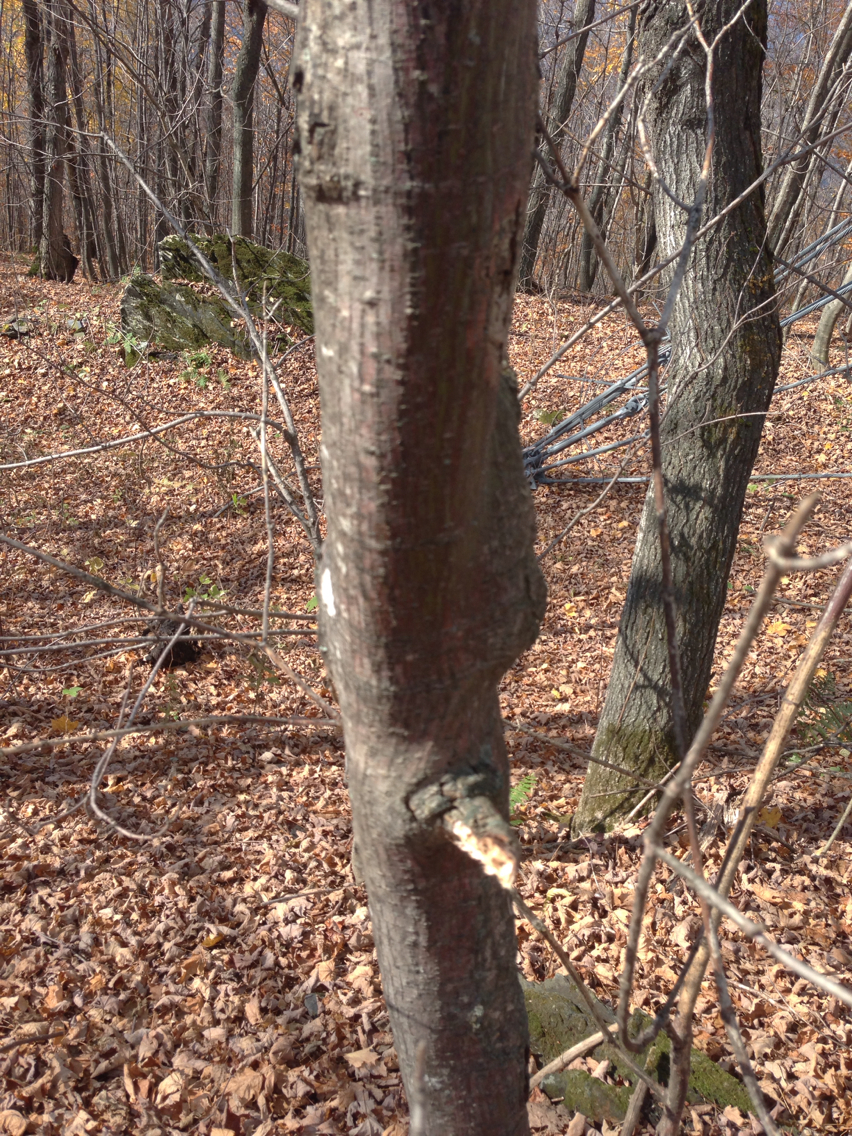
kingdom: Plantae
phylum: Tracheophyta
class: Magnoliopsida
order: Sapindales
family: Sapindaceae
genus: Acer
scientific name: Acer pensylvanicum
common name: Moosewood
